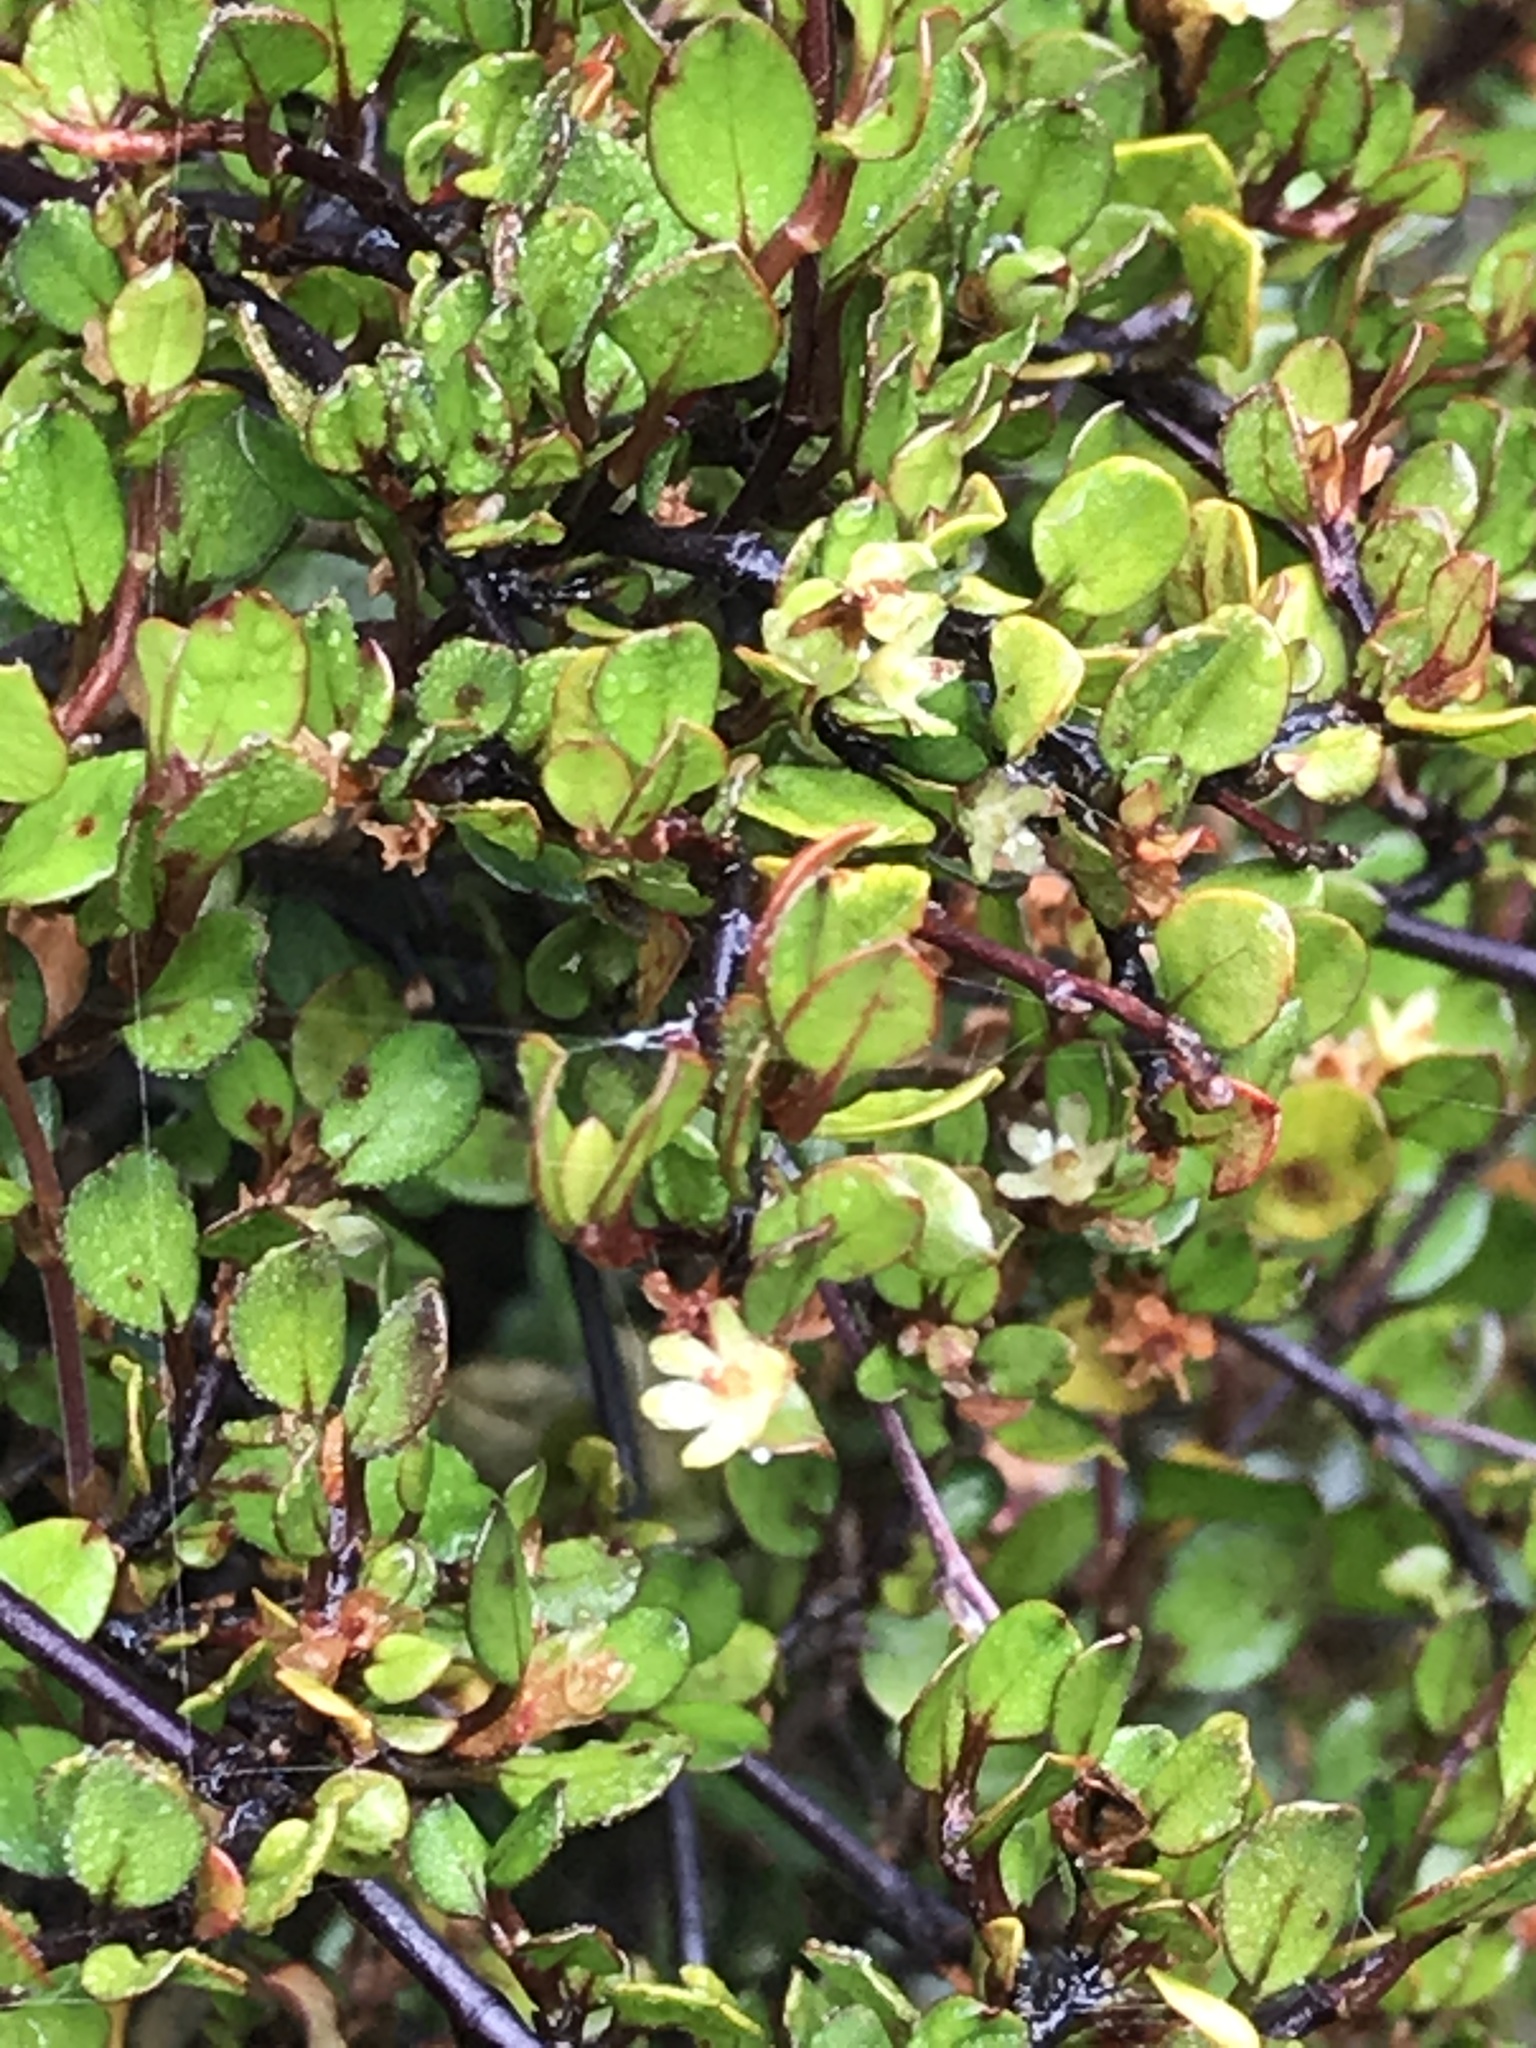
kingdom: Plantae
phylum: Tracheophyta
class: Magnoliopsida
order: Caryophyllales
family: Polygonaceae
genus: Muehlenbeckia
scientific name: Muehlenbeckia complexa
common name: Wireplant
